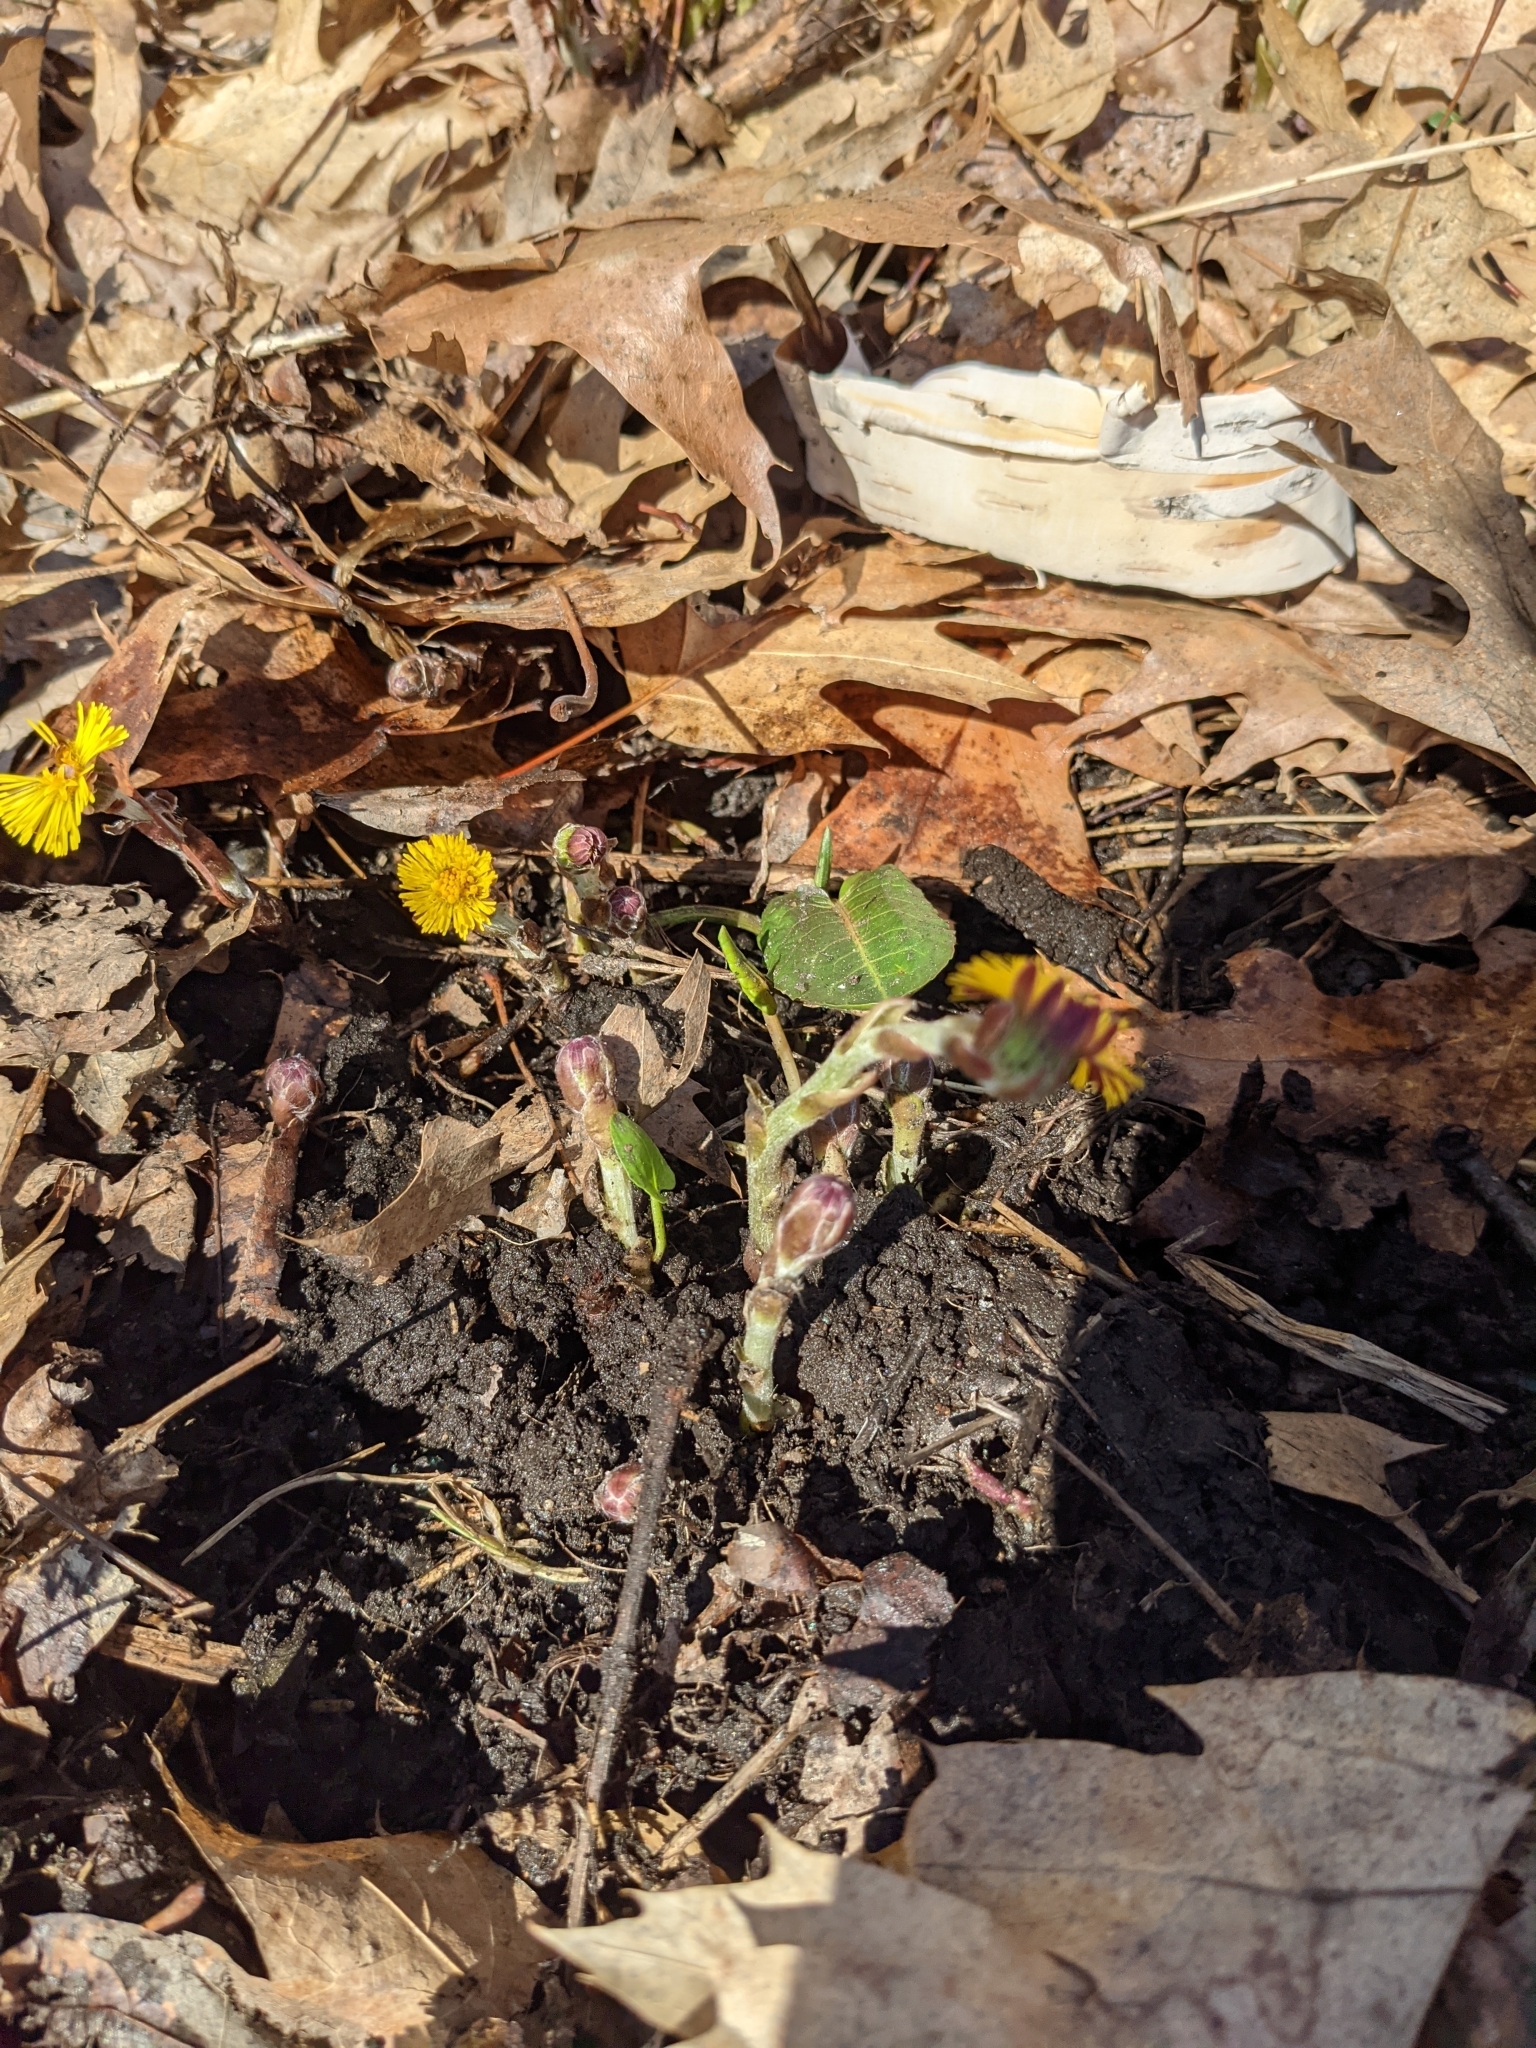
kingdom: Plantae
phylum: Tracheophyta
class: Magnoliopsida
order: Asterales
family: Asteraceae
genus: Tussilago
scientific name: Tussilago farfara
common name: Coltsfoot
